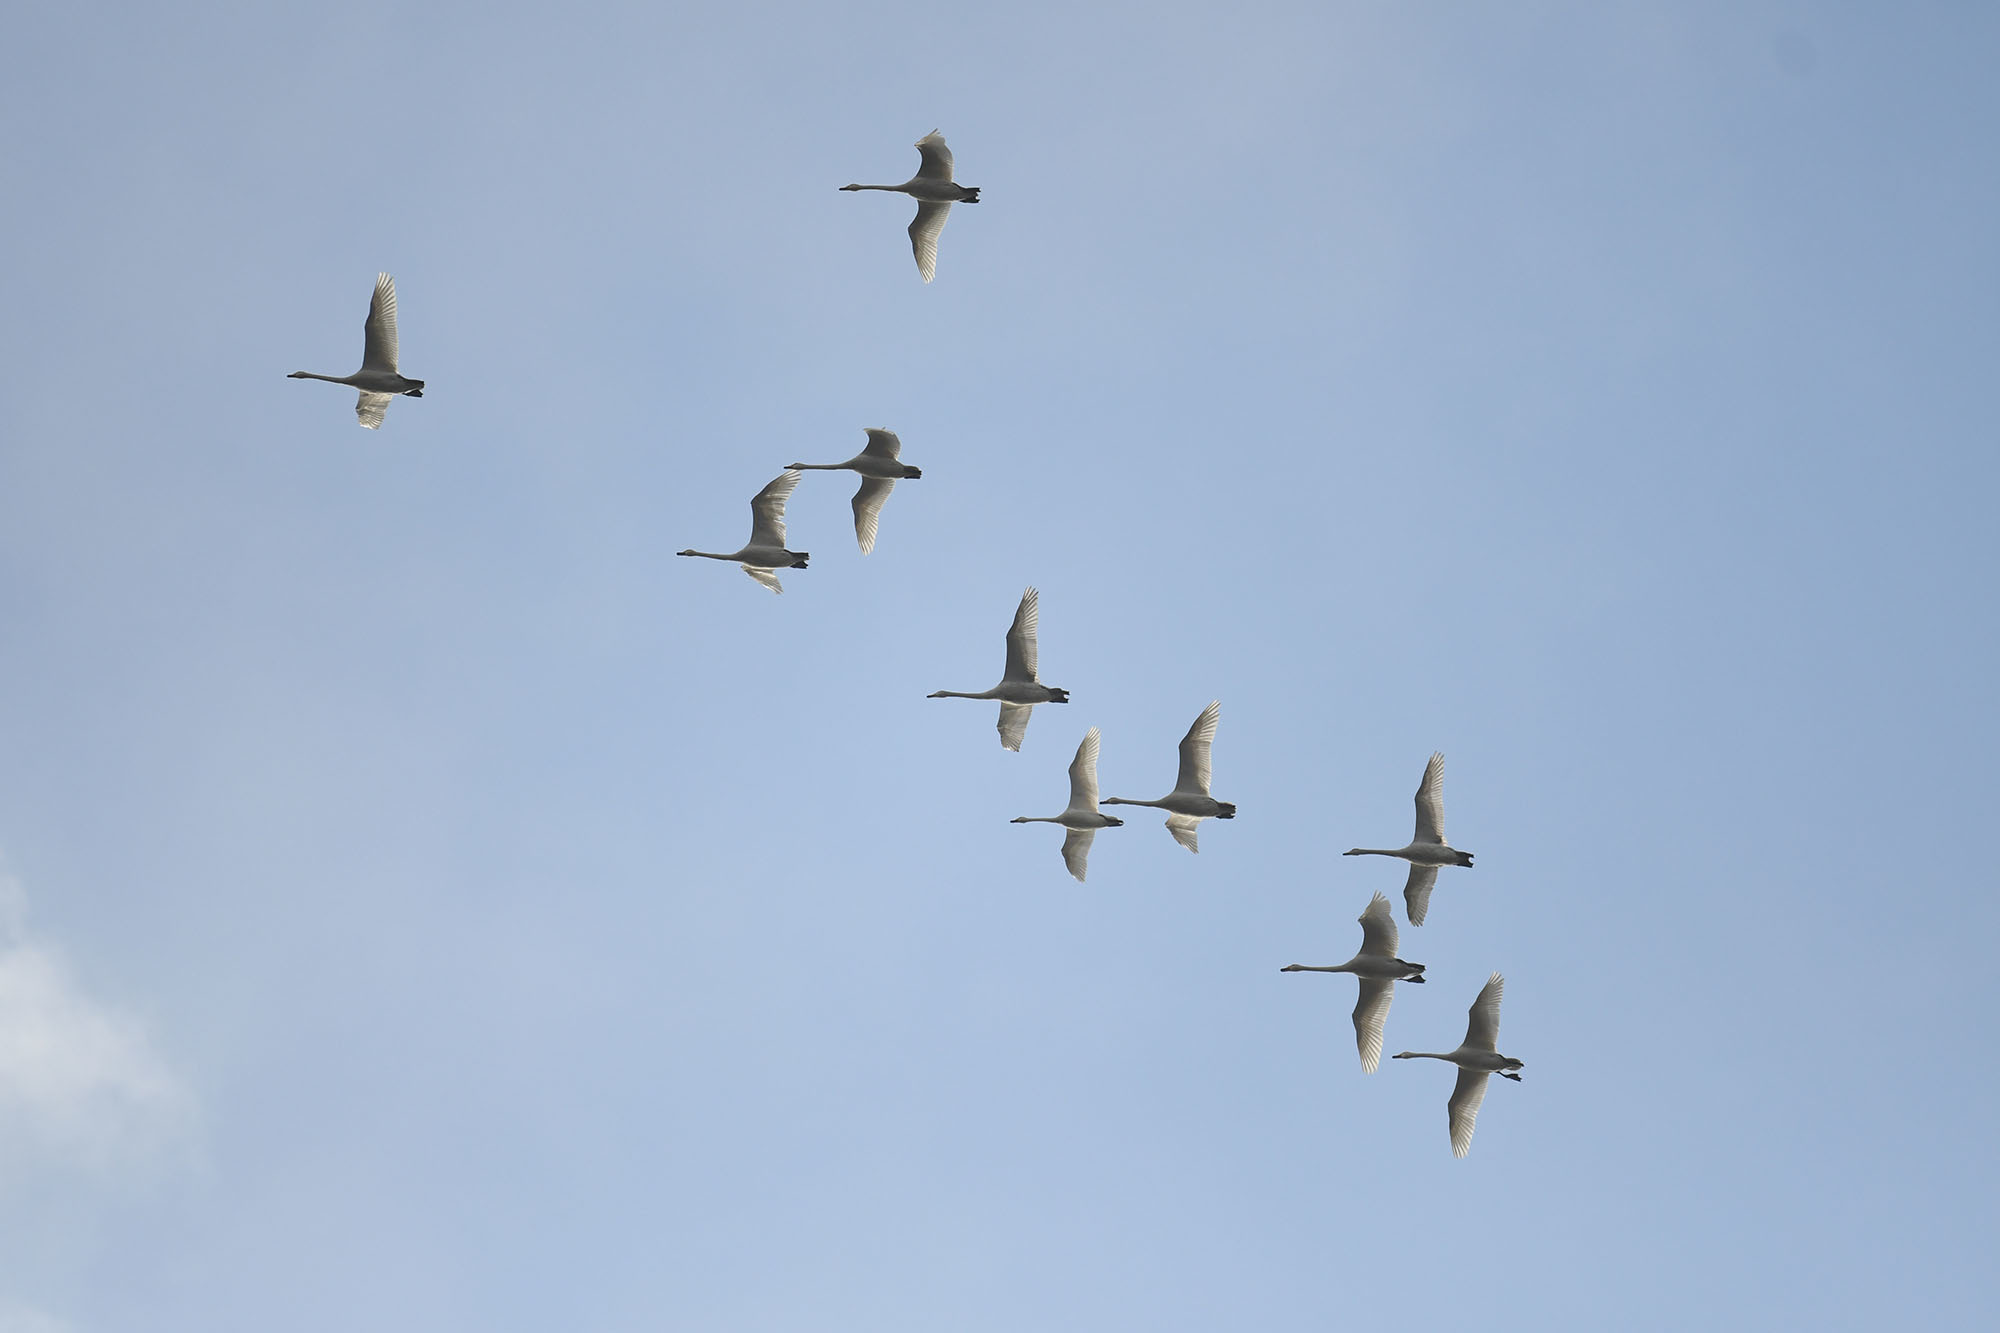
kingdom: Animalia
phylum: Chordata
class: Aves
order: Anseriformes
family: Anatidae
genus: Cygnus
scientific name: Cygnus cygnus
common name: Whooper swan
